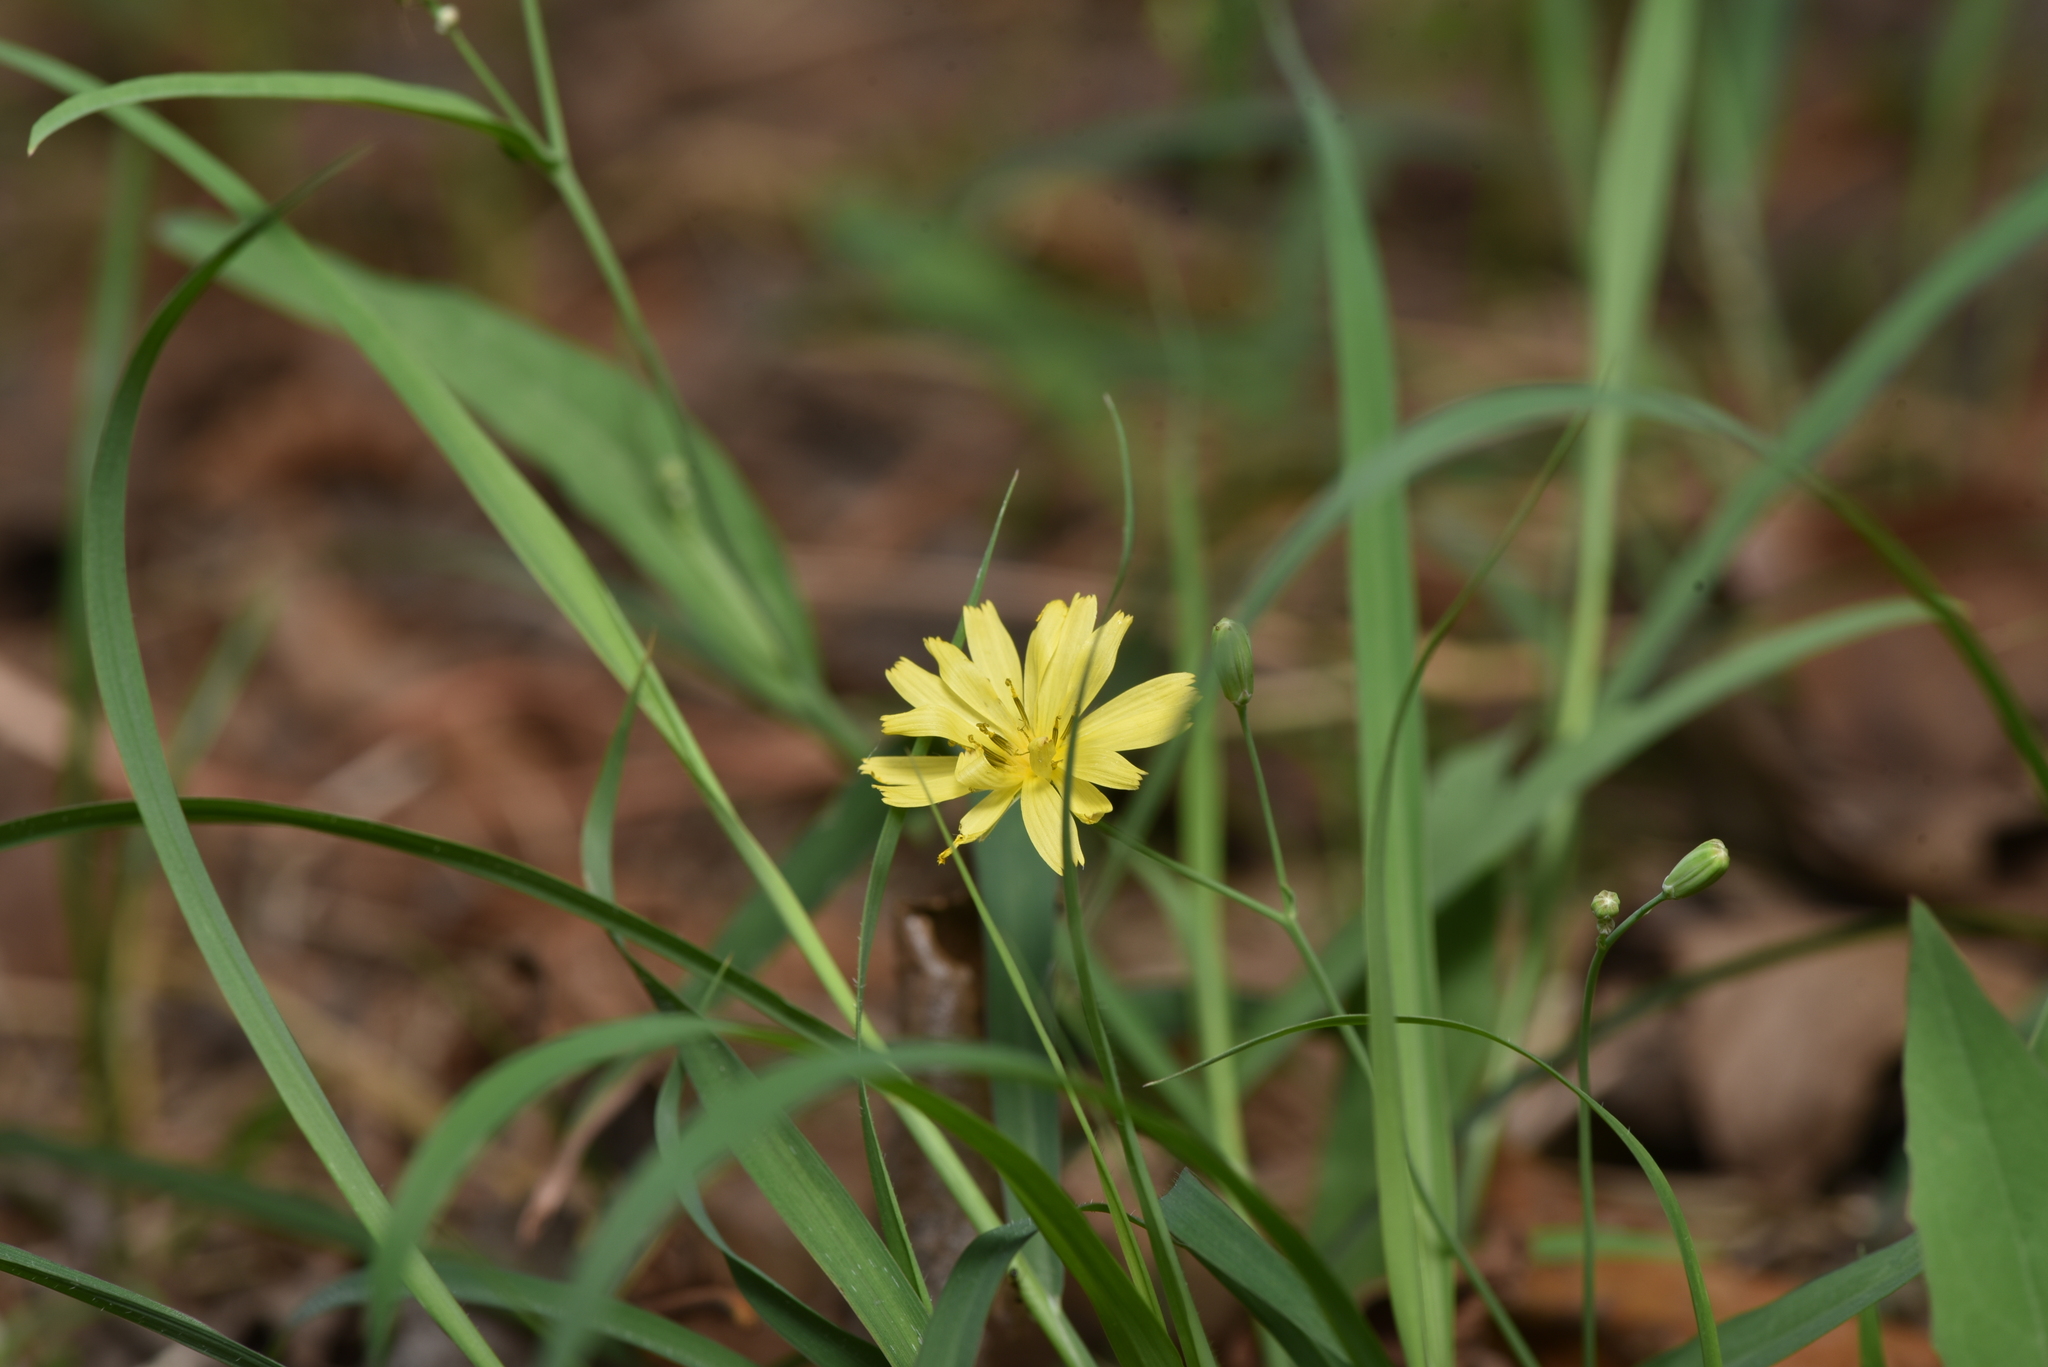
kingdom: Plantae
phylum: Tracheophyta
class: Magnoliopsida
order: Asterales
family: Asteraceae
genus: Ixeris
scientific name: Ixeris chinensis
